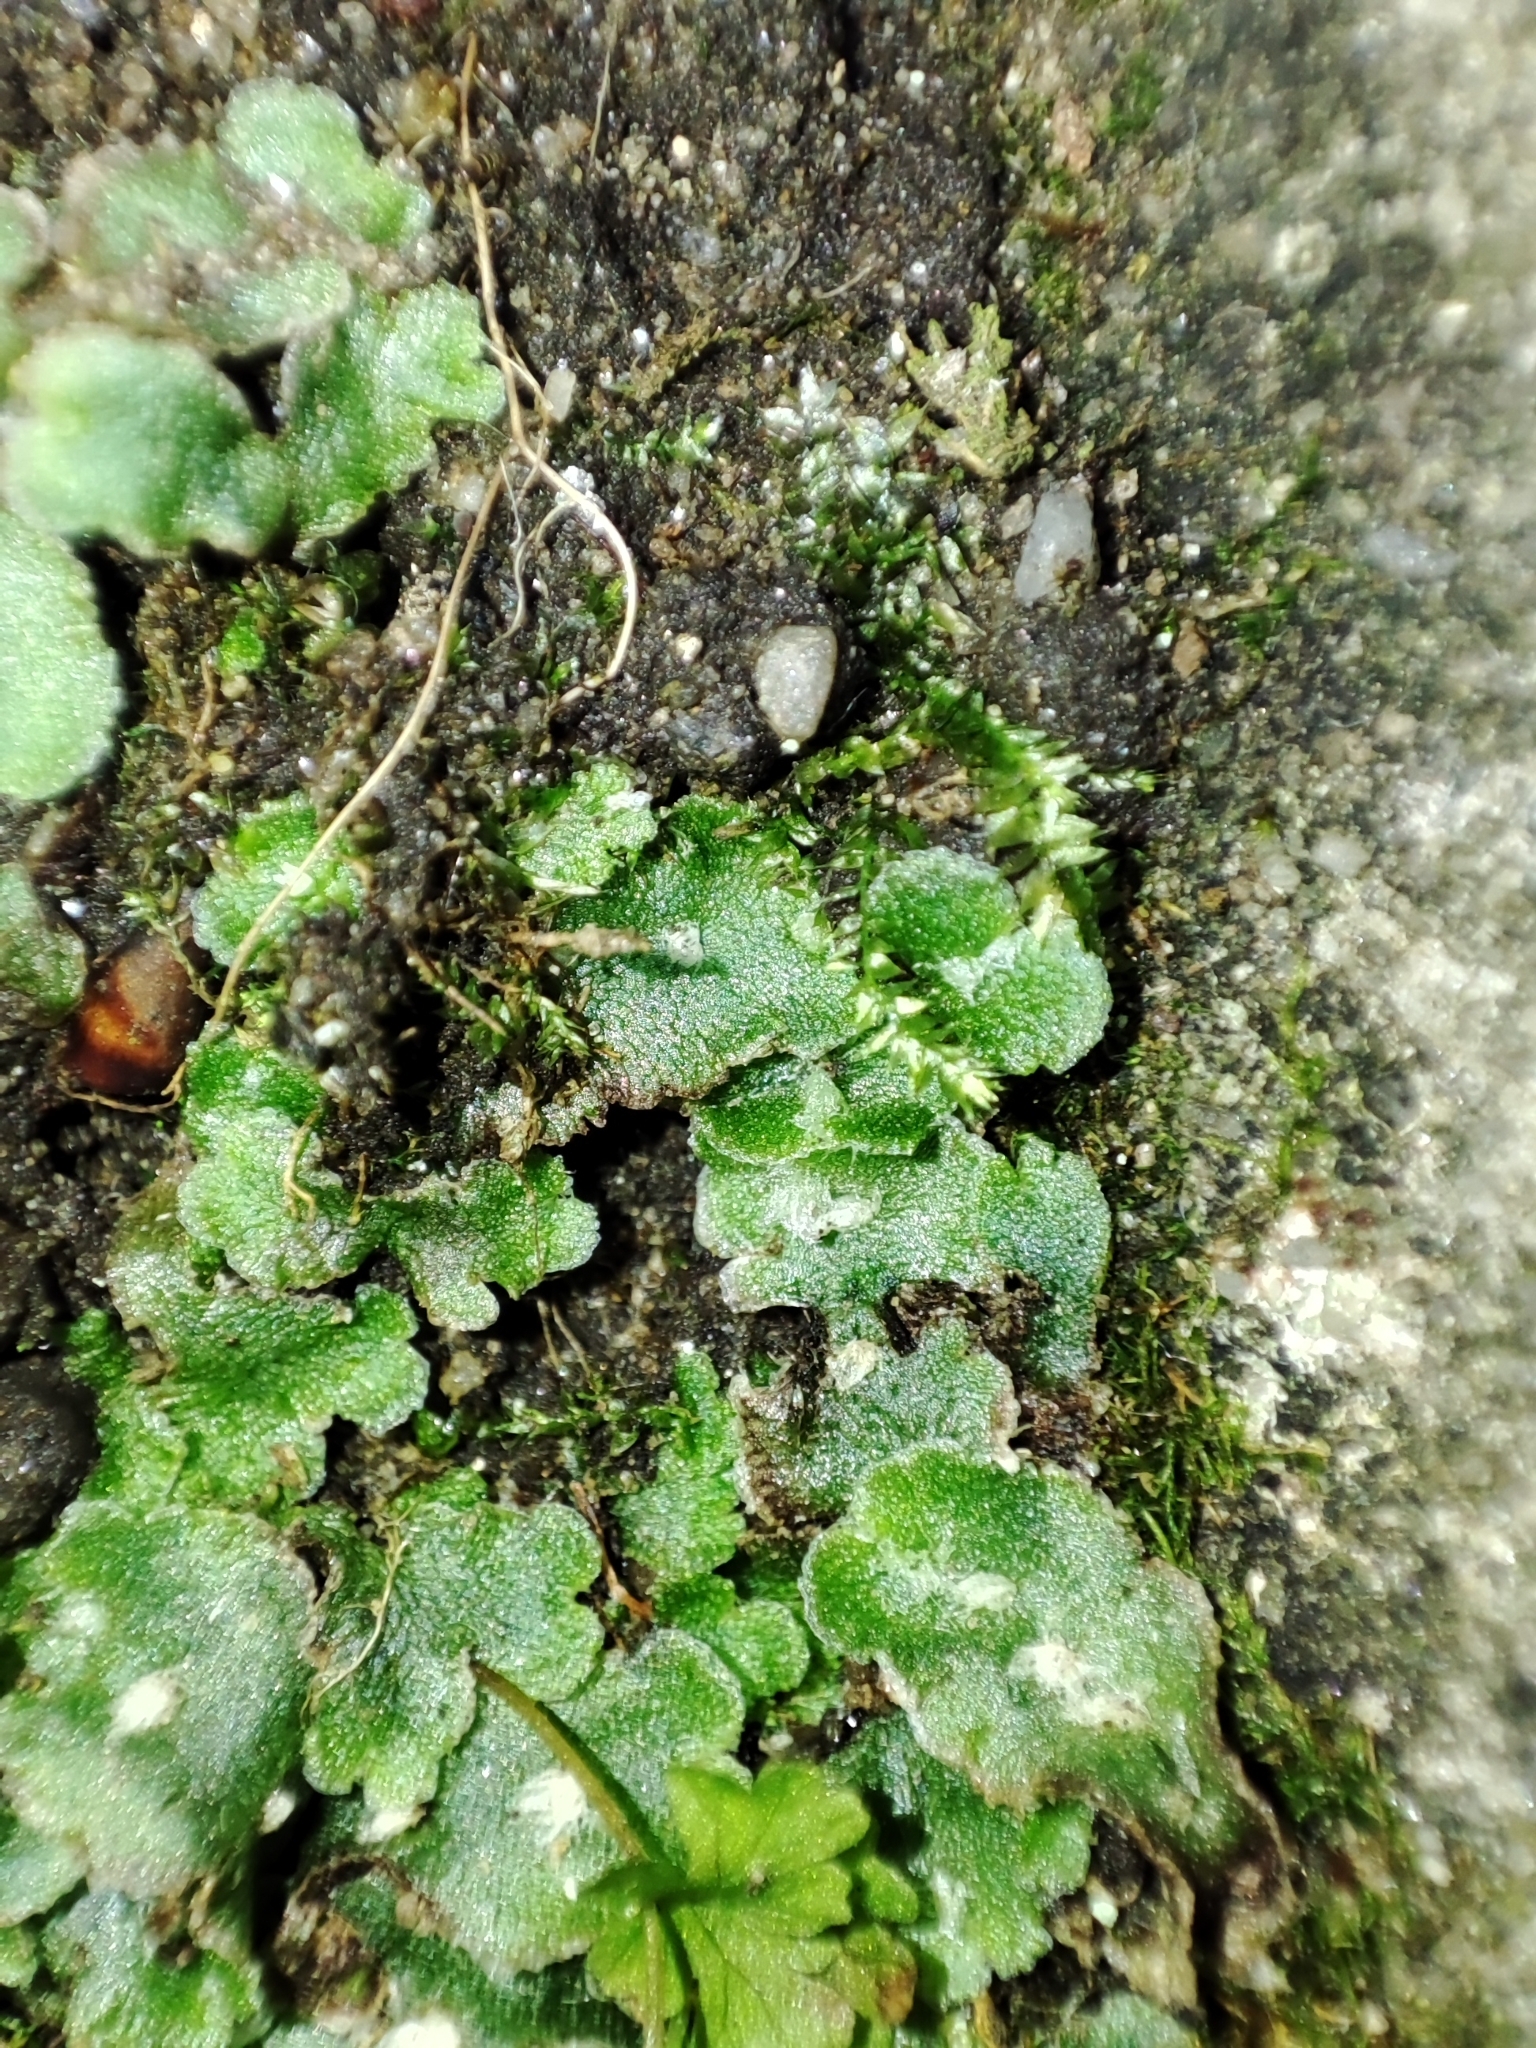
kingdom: Plantae
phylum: Marchantiophyta
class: Marchantiopsida
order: Marchantiales
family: Cleveaceae
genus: Clevea
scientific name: Clevea hyalina
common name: Hyaline liverwort
